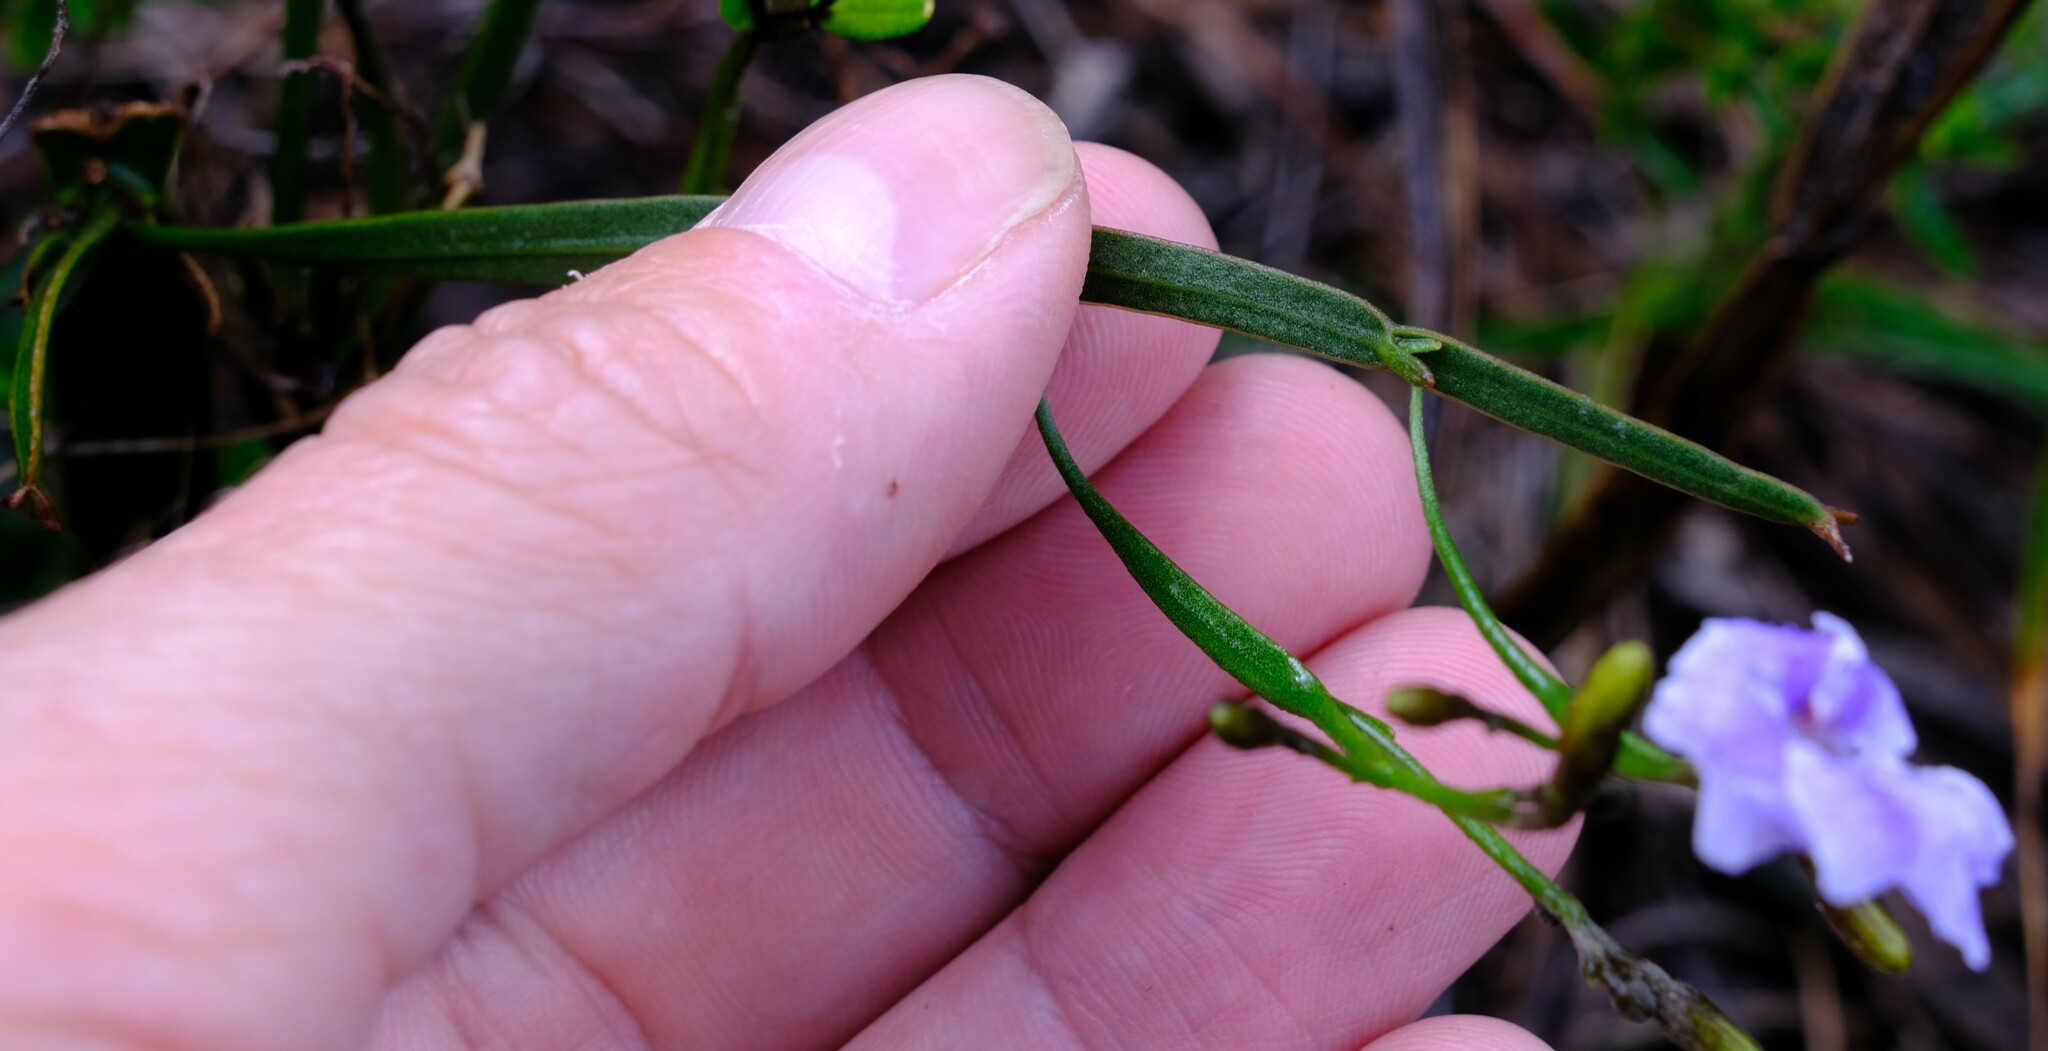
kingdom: Plantae
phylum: Tracheophyta
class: Magnoliopsida
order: Asterales
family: Goodeniaceae
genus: Dampiera
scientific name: Dampiera lindleyi
